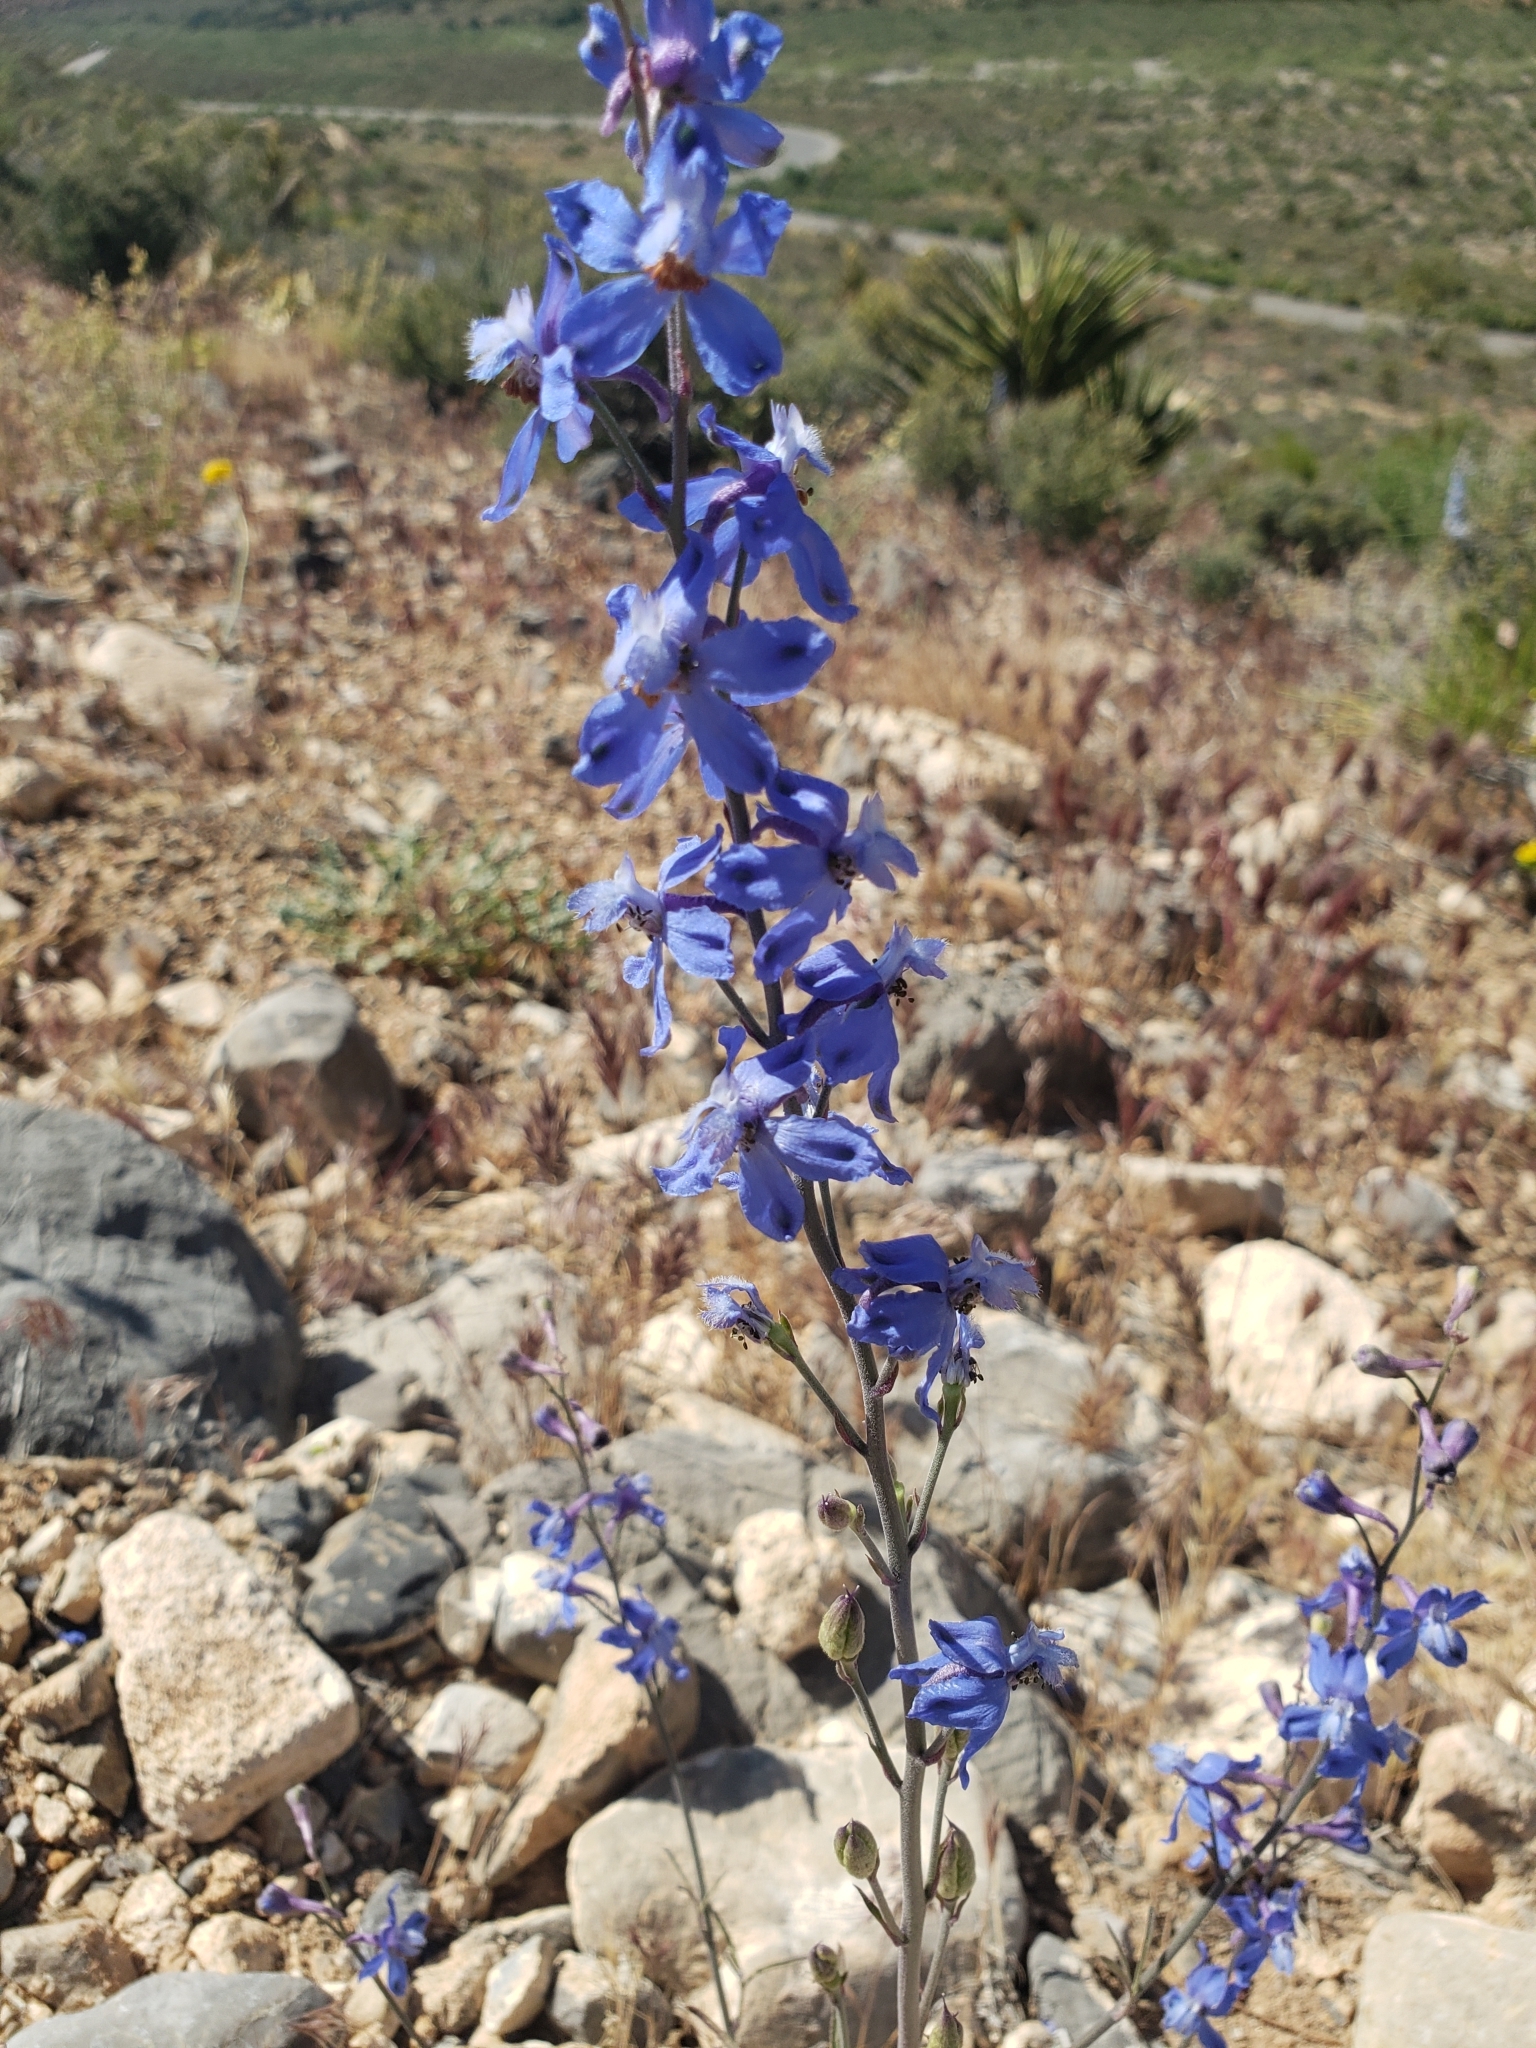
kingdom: Plantae
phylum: Tracheophyta
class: Magnoliopsida
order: Ranunculales
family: Ranunculaceae
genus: Delphinium
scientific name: Delphinium parishii
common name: Apache larkspur
